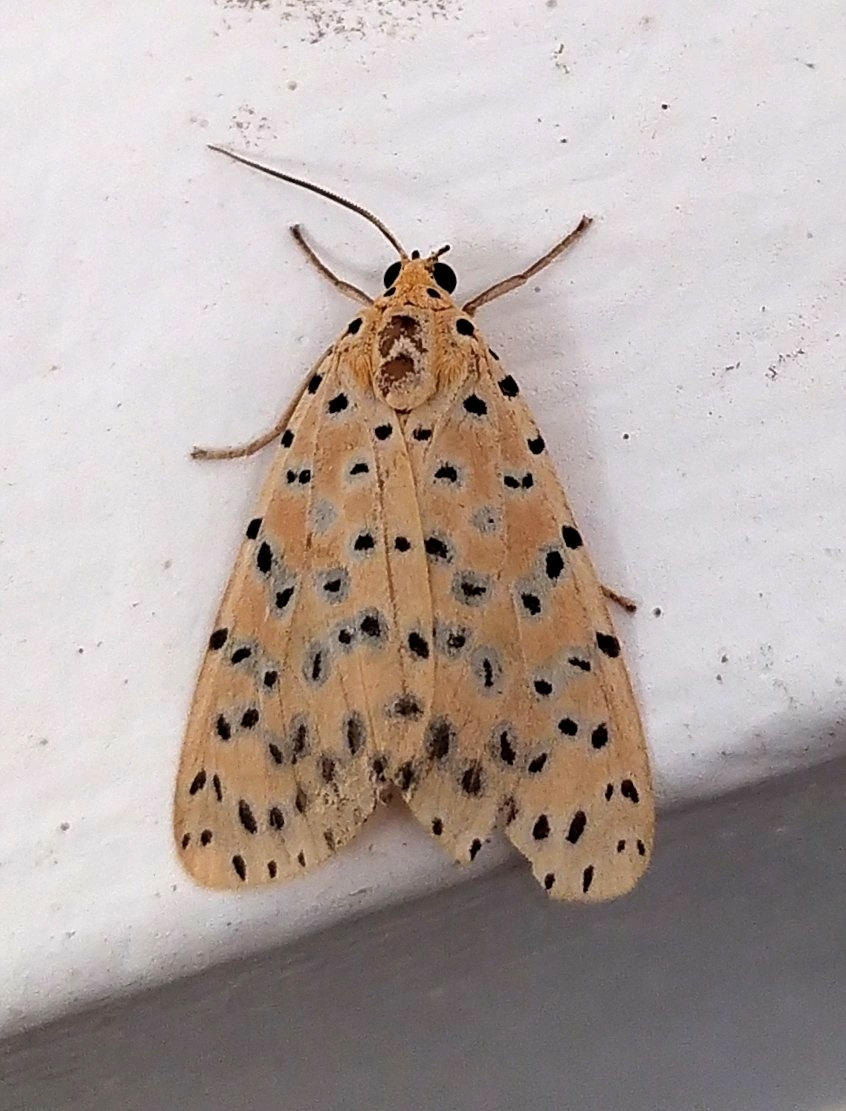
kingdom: Animalia
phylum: Arthropoda
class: Insecta
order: Lepidoptera
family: Erebidae
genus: Argina
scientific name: Argina astrea
